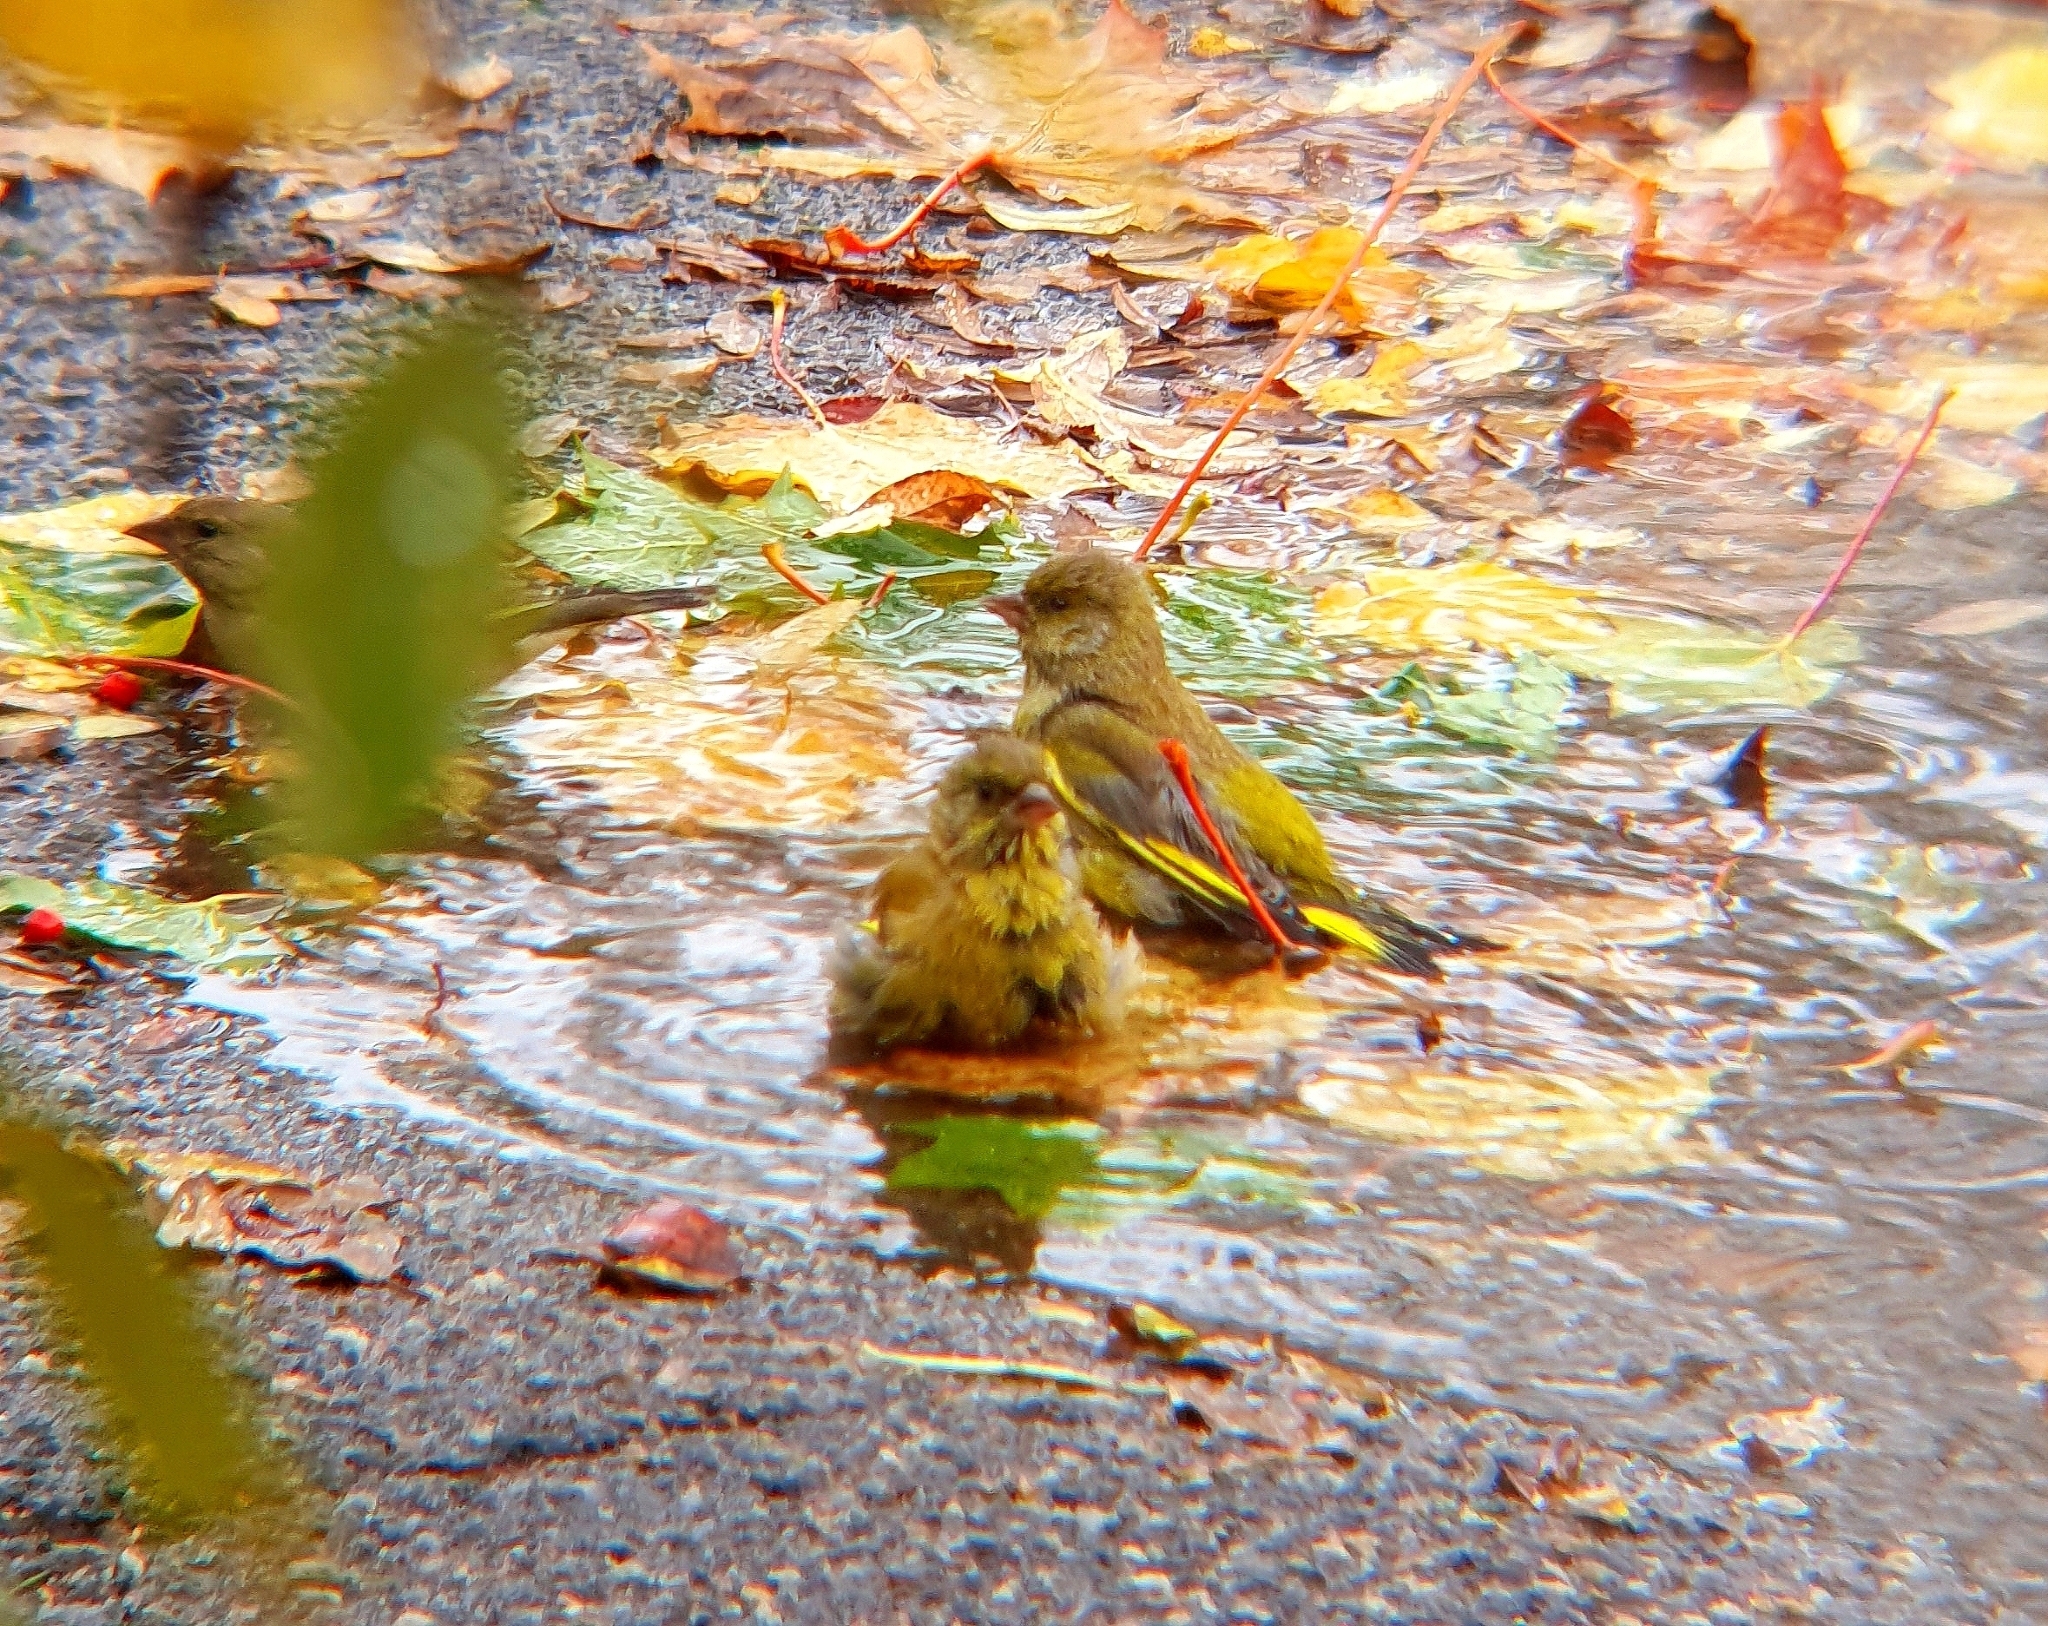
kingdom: Plantae
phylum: Tracheophyta
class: Liliopsida
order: Poales
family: Poaceae
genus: Chloris
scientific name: Chloris chloris
